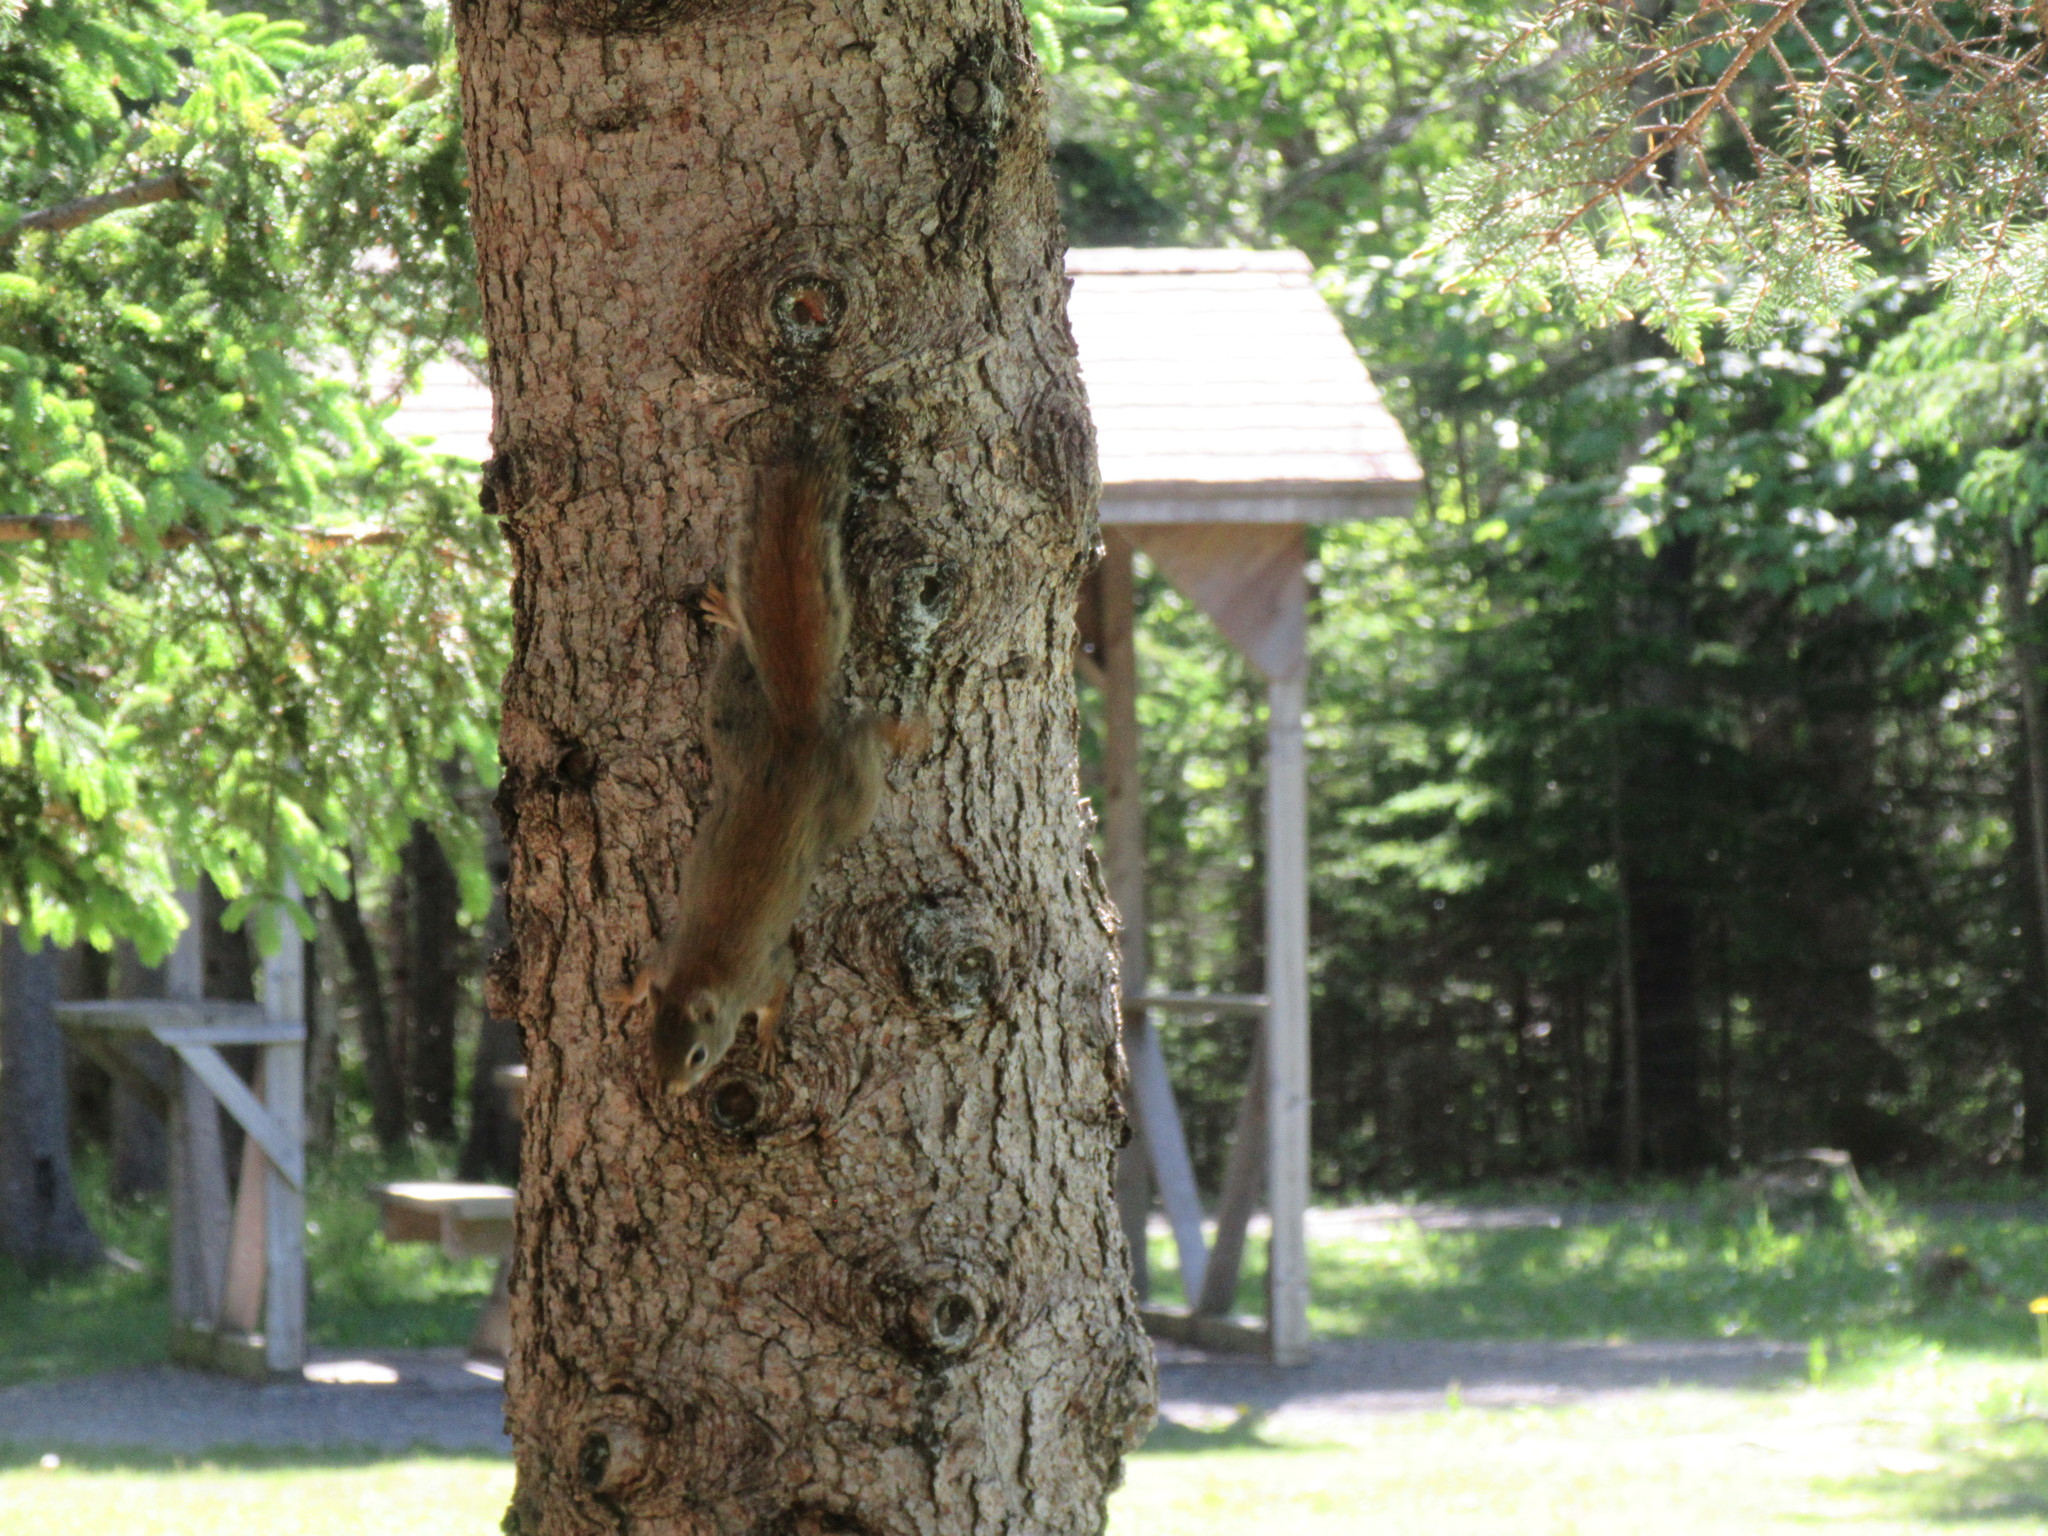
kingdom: Animalia
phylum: Chordata
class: Mammalia
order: Rodentia
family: Sciuridae
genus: Tamiasciurus
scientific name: Tamiasciurus hudsonicus
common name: Red squirrel
